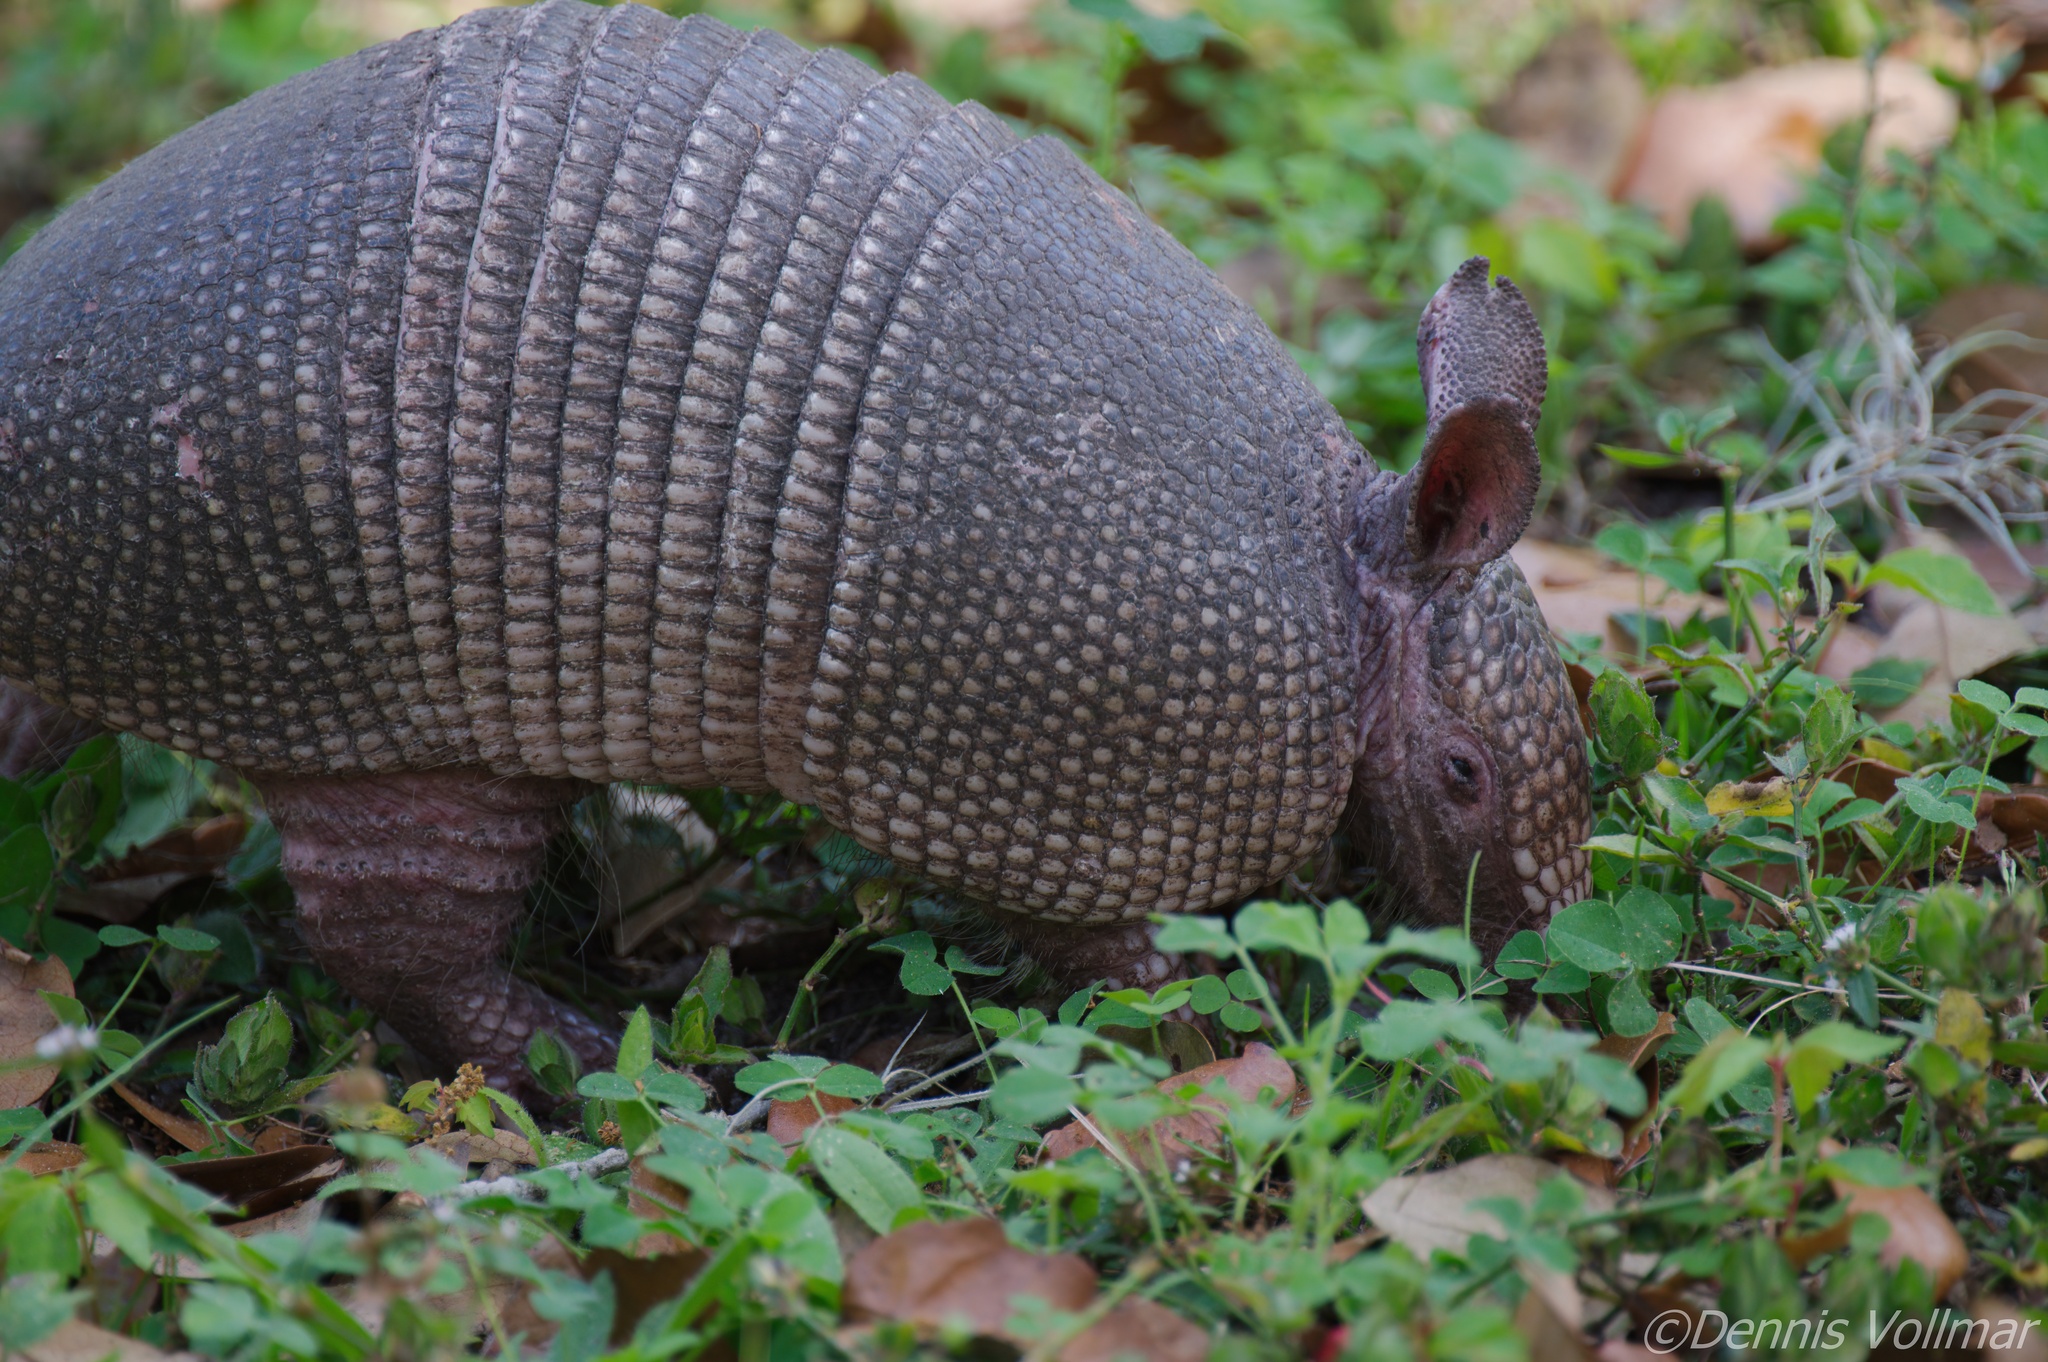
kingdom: Animalia
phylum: Chordata
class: Mammalia
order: Cingulata
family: Dasypodidae
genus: Dasypus
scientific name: Dasypus novemcinctus
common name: Nine-banded armadillo
